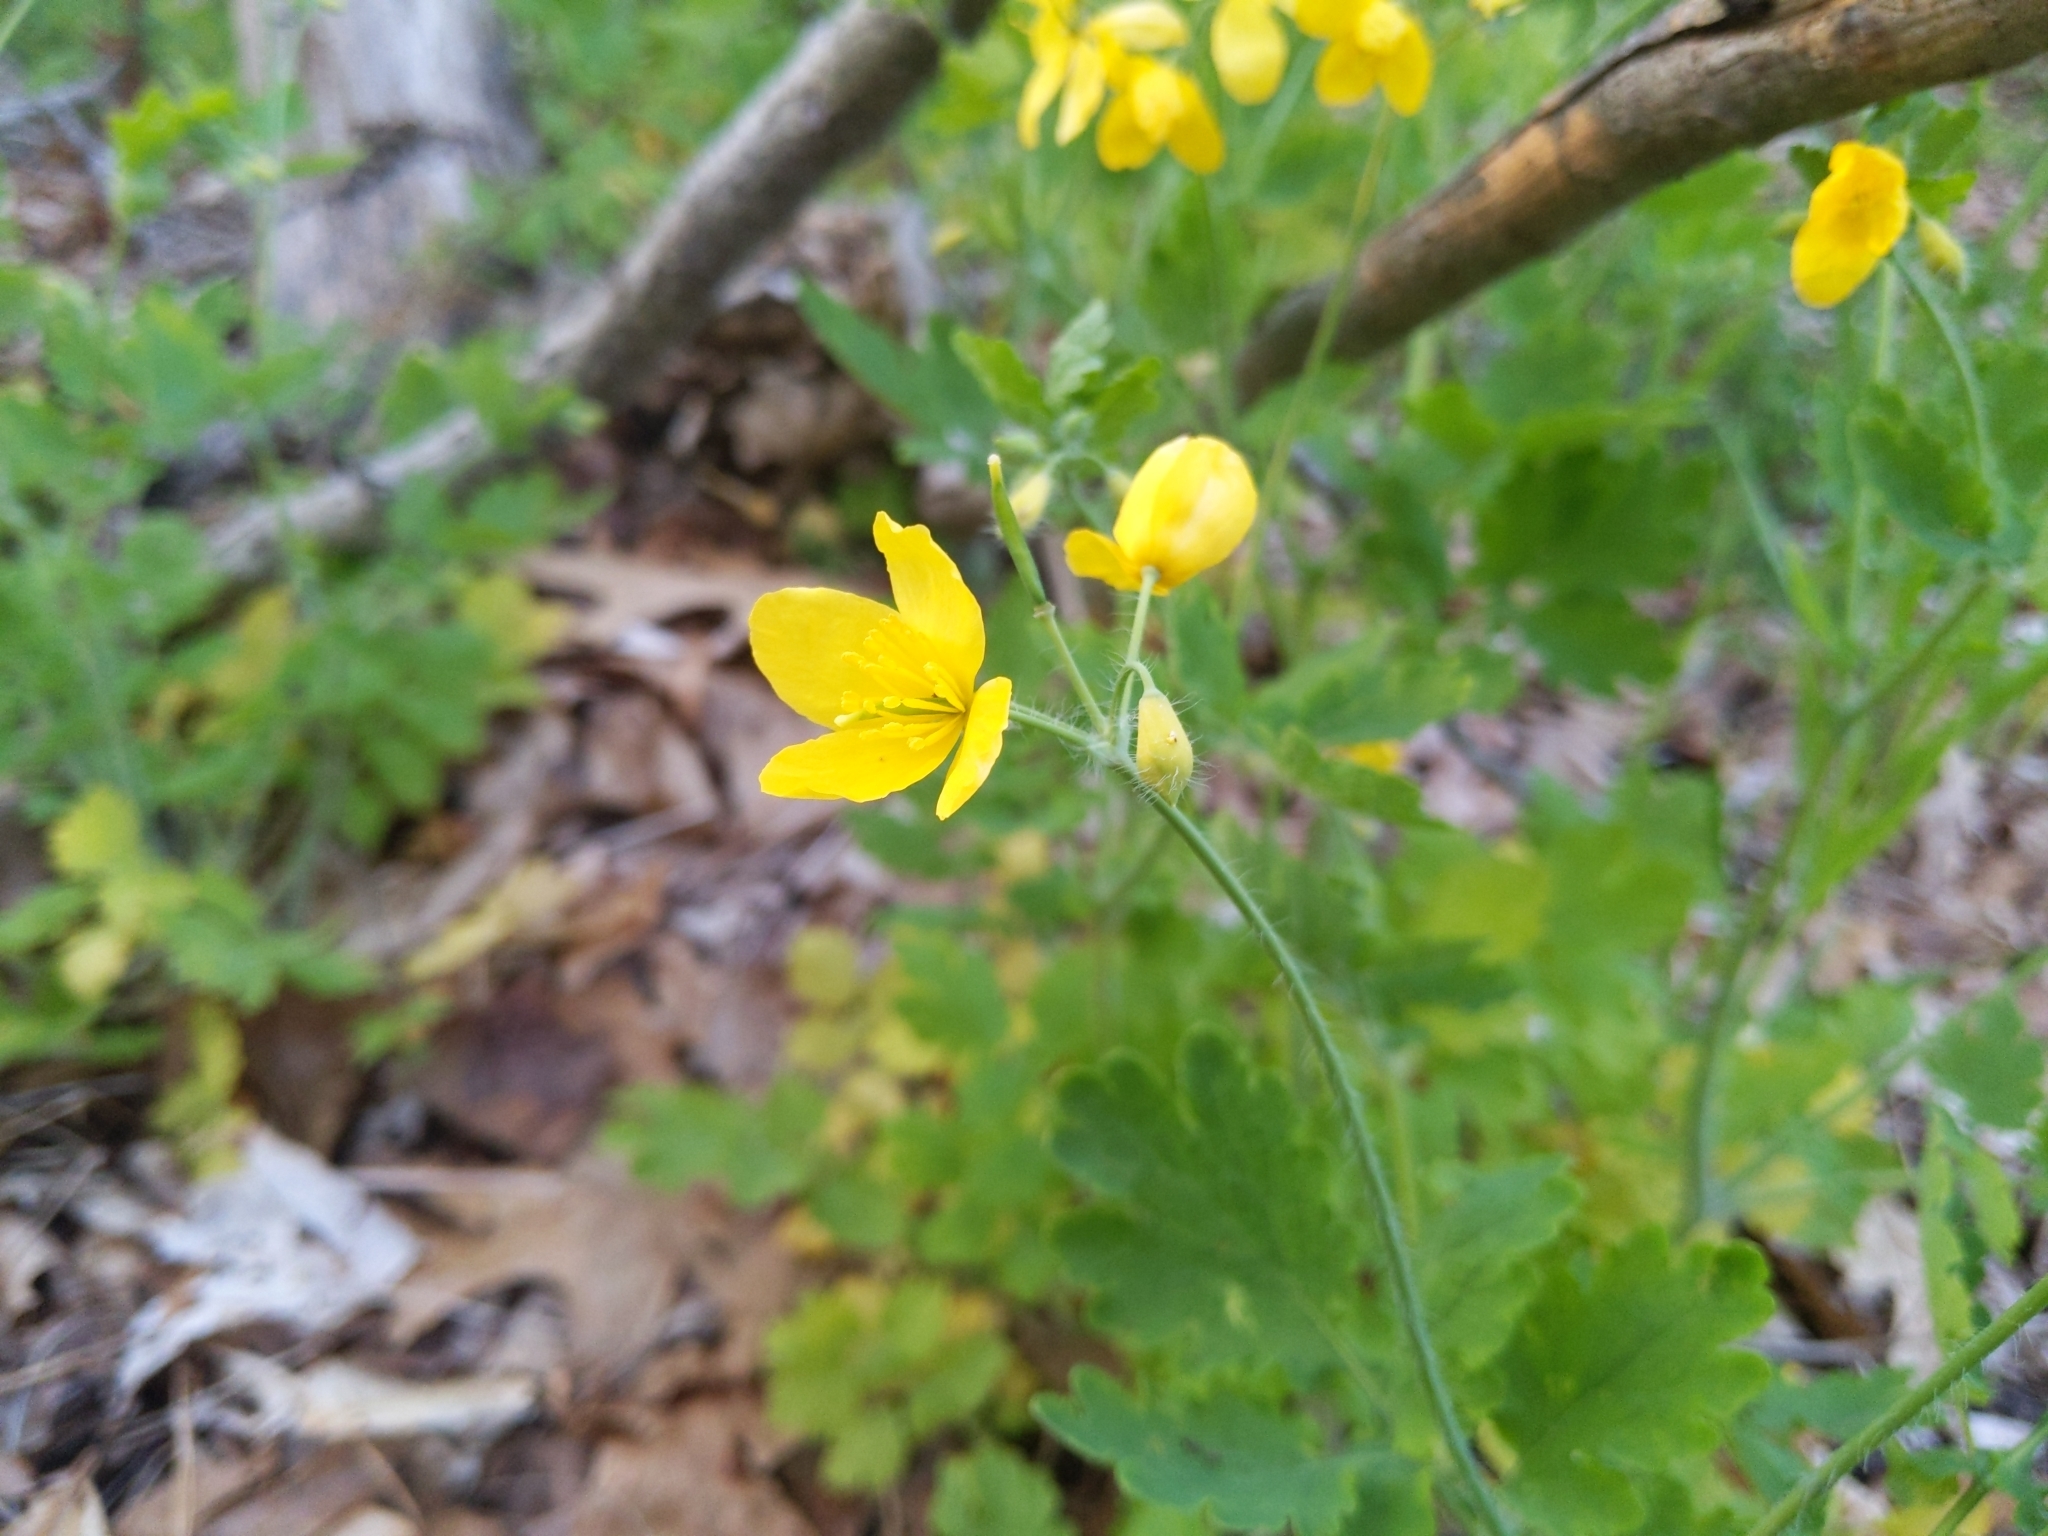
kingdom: Plantae
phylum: Tracheophyta
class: Magnoliopsida
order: Ranunculales
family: Papaveraceae
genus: Chelidonium
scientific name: Chelidonium majus
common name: Greater celandine
